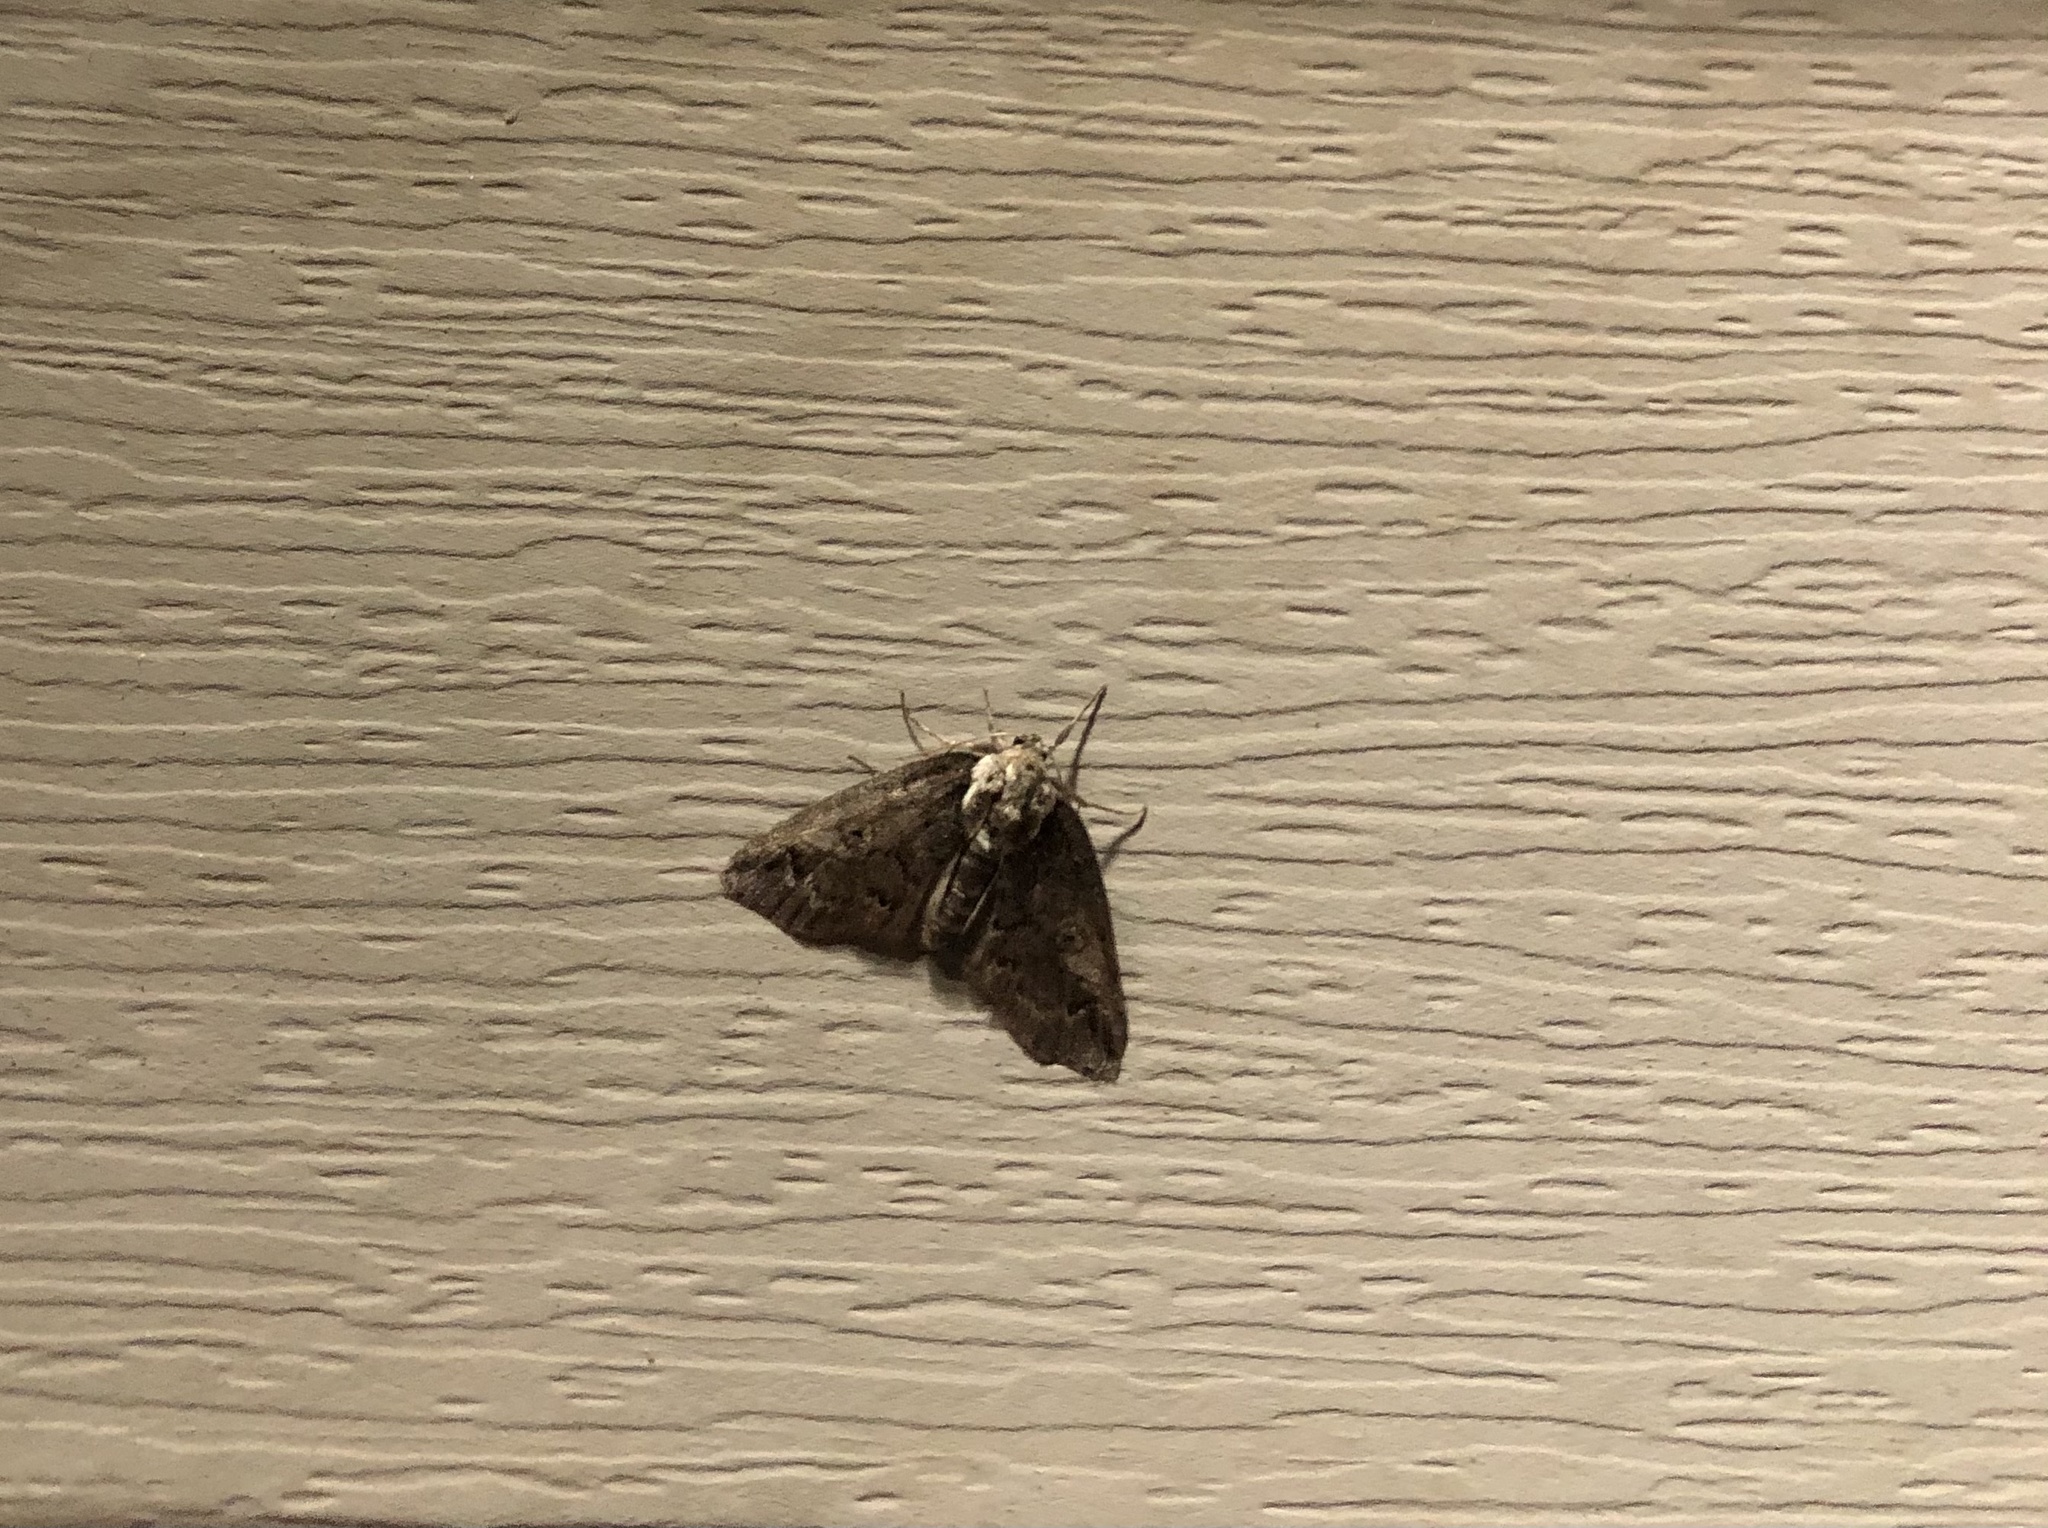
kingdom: Animalia
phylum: Arthropoda
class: Insecta
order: Lepidoptera
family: Nolidae
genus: Baileya
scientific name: Baileya ophthalmica
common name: Eyed baileya moth
